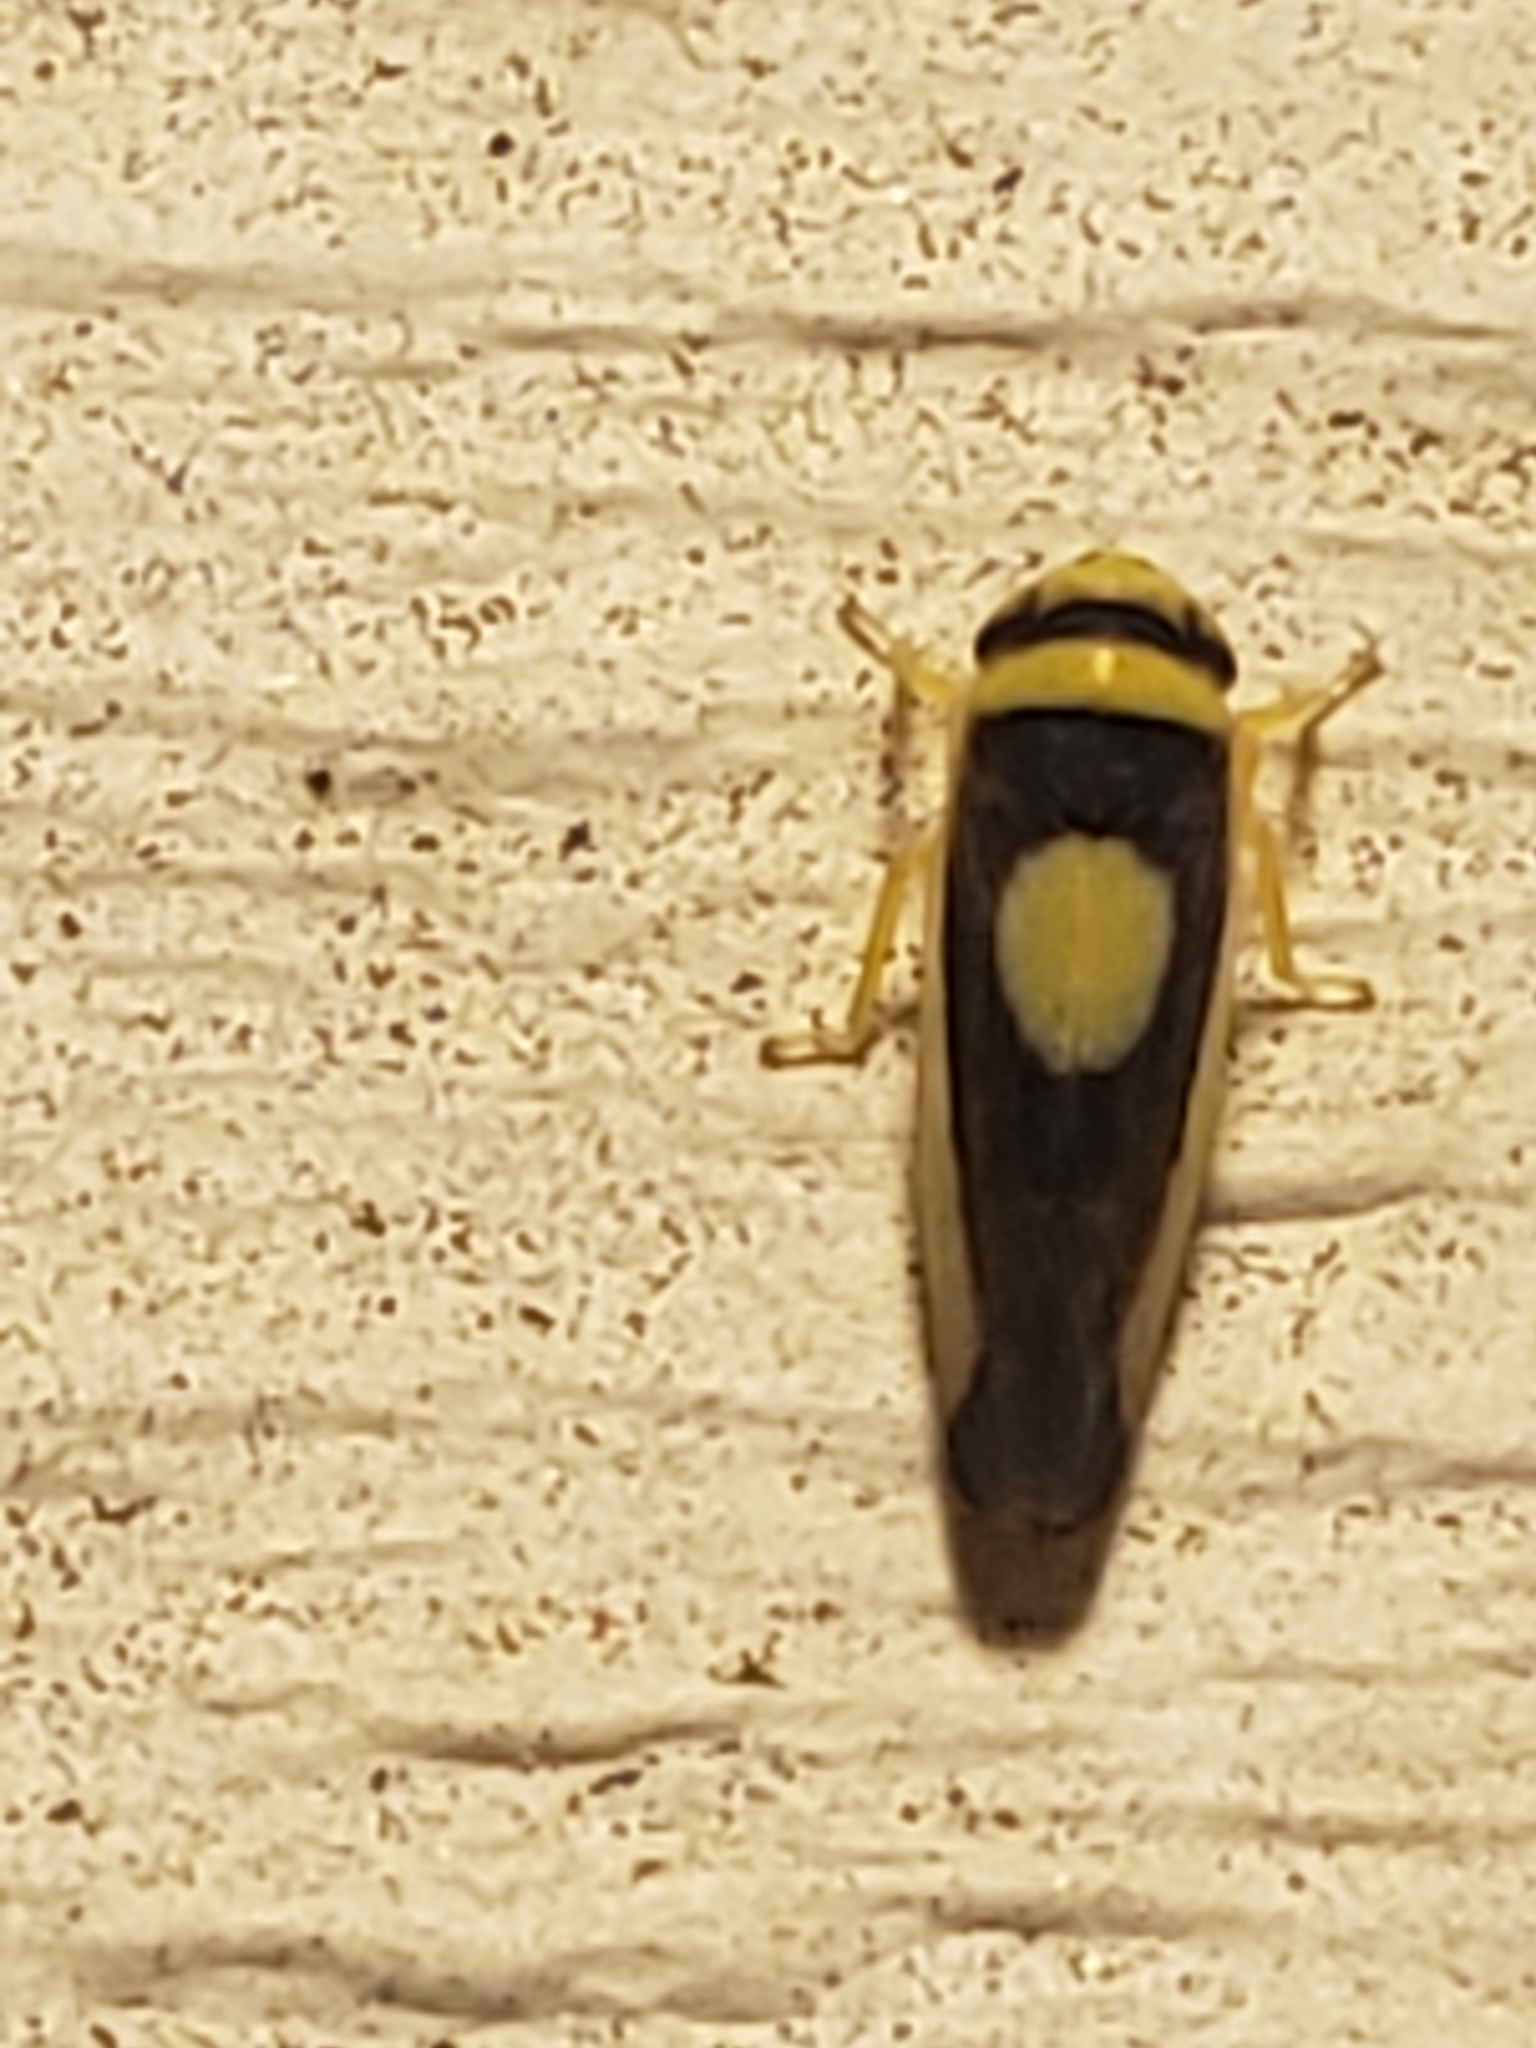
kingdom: Animalia
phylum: Arthropoda
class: Insecta
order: Hemiptera
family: Cicadellidae
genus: Colladonus
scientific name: Colladonus clitellarius
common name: The saddleback leafhopper
